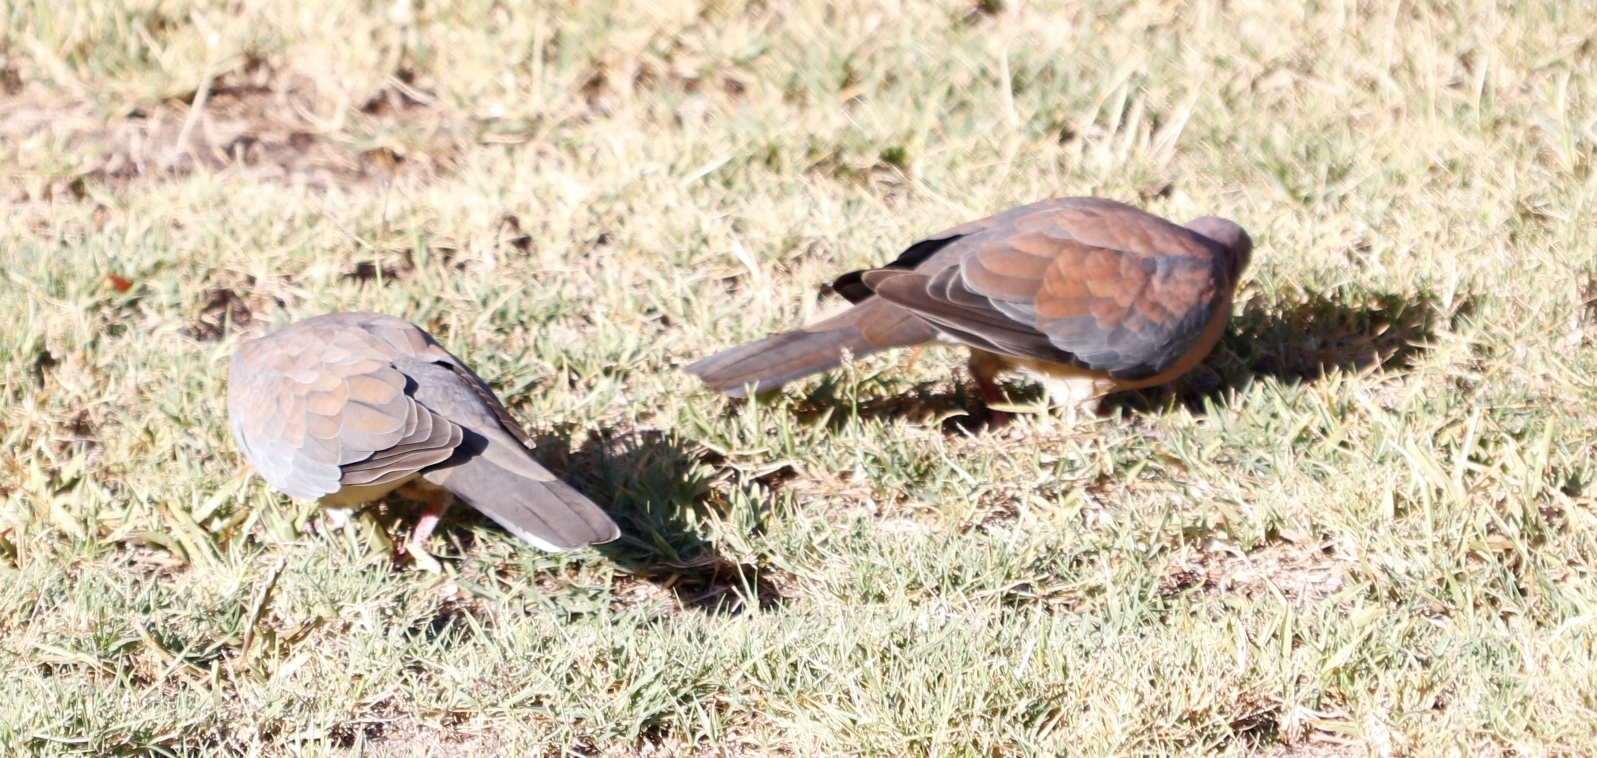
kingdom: Animalia
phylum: Chordata
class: Aves
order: Columbiformes
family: Columbidae
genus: Spilopelia
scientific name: Spilopelia senegalensis
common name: Laughing dove
